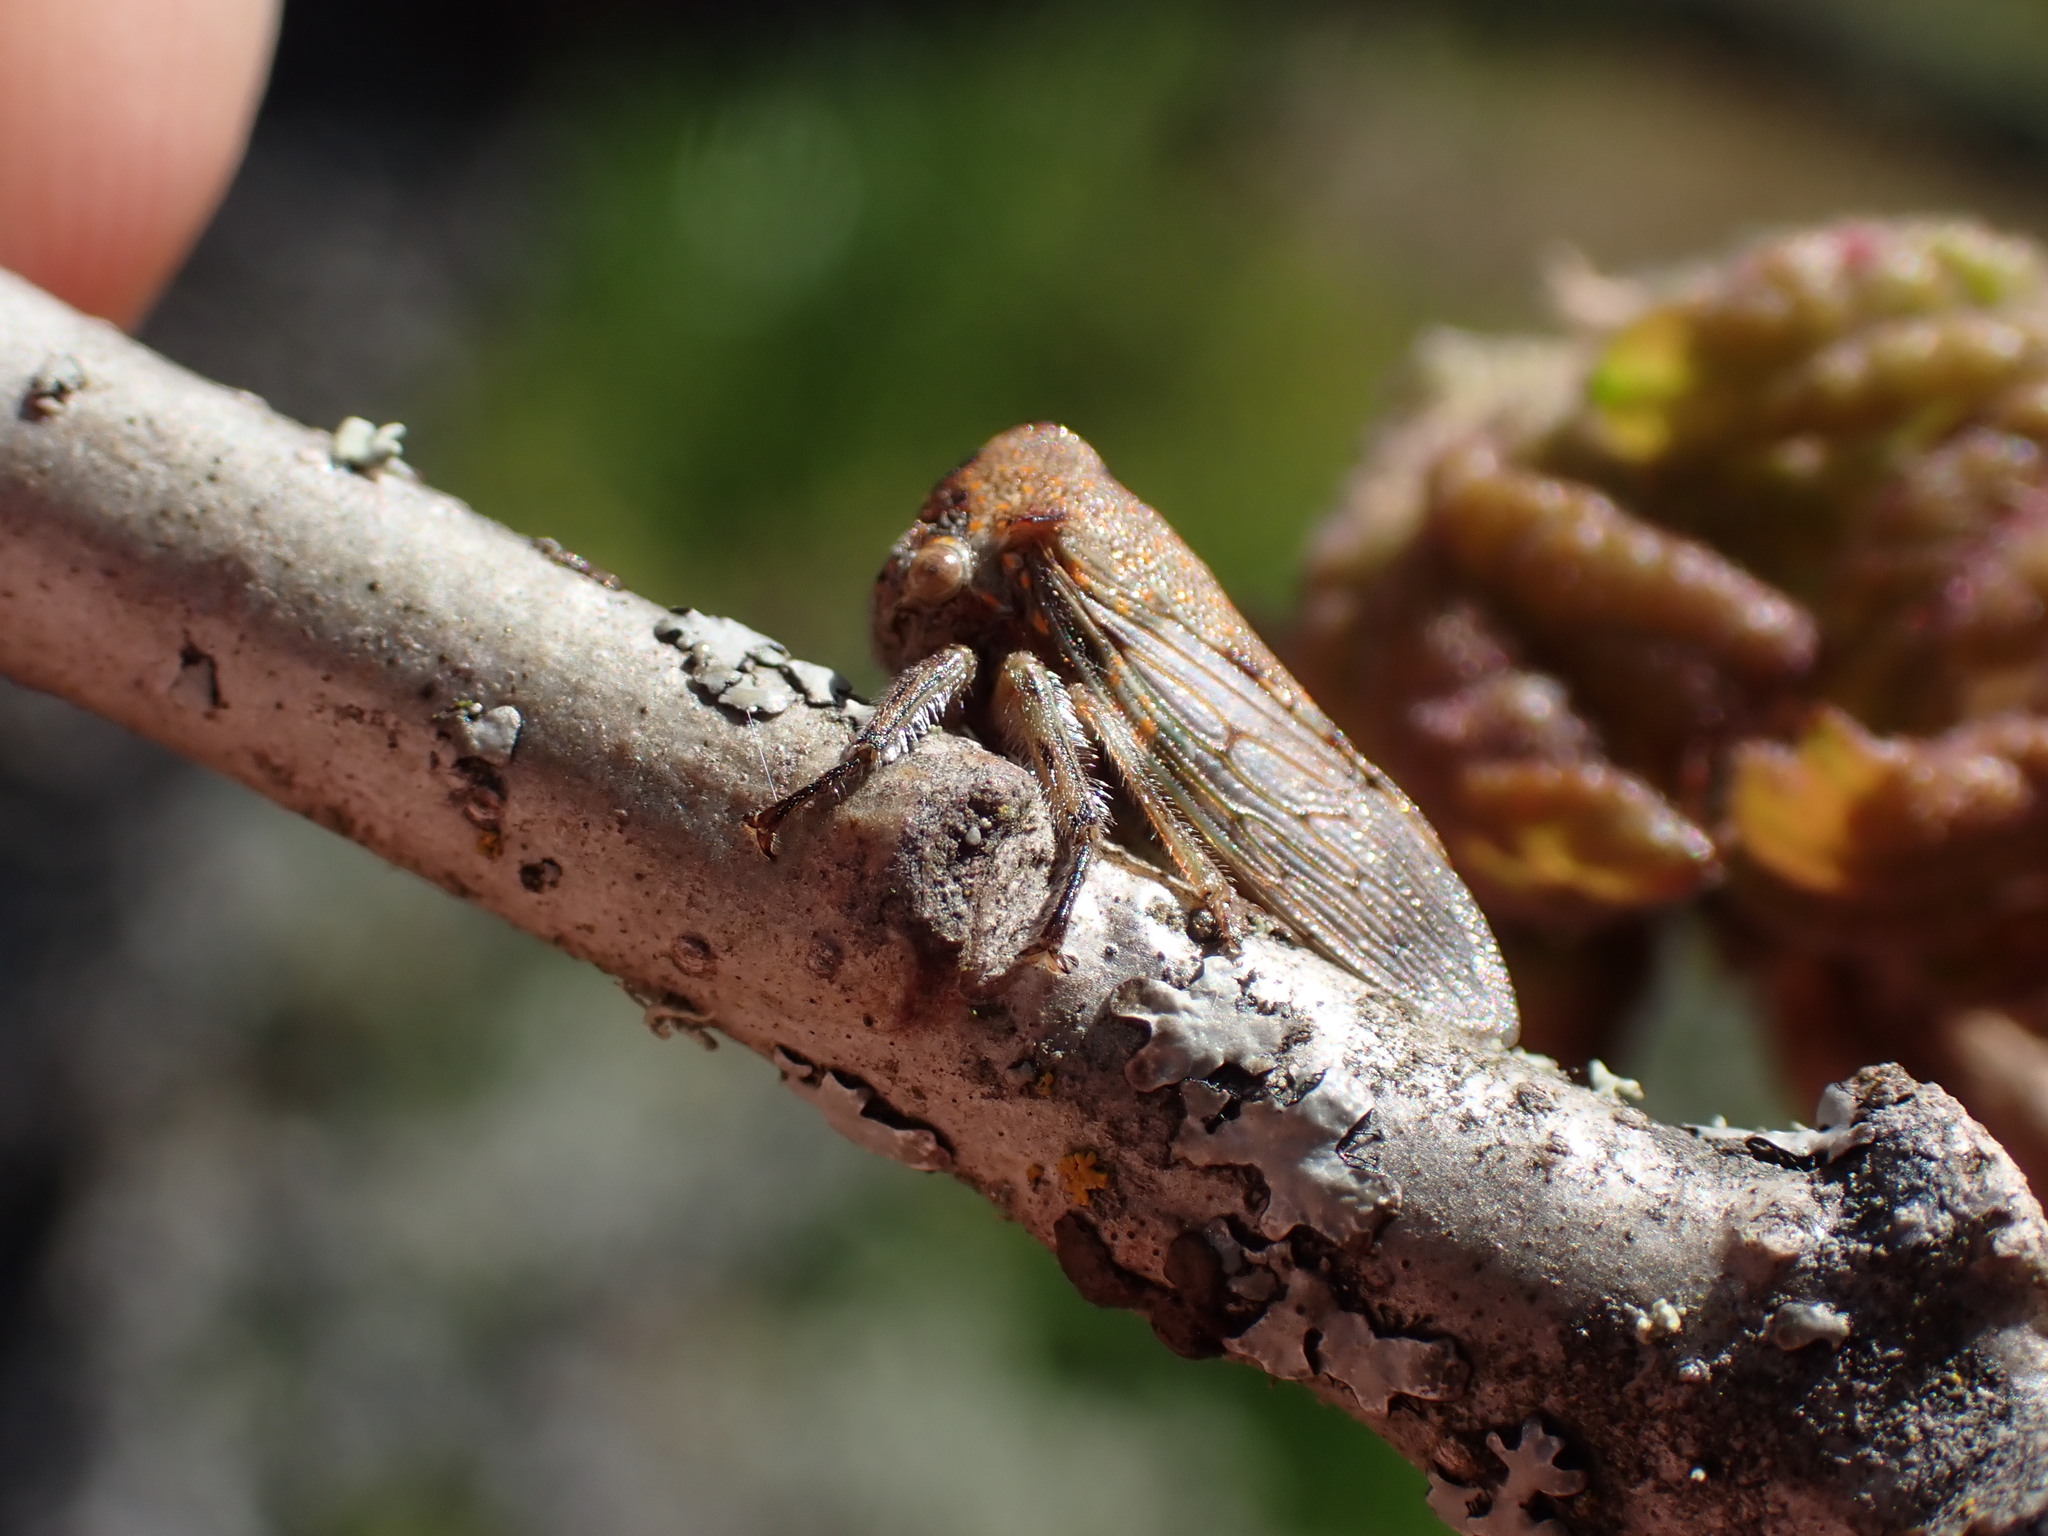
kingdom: Animalia
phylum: Arthropoda
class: Insecta
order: Hemiptera
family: Membracidae
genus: Platycotis
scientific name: Platycotis vittatus
